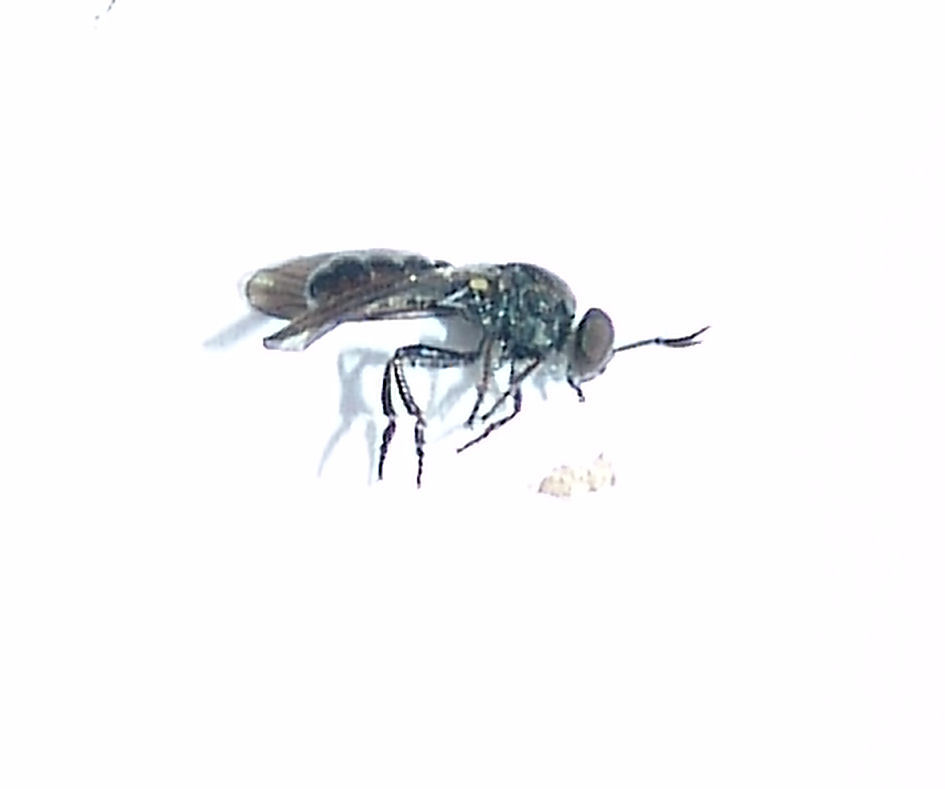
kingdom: Animalia
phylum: Arthropoda
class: Insecta
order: Diptera
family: Asilidae
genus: Cerotainia
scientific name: Cerotainia
